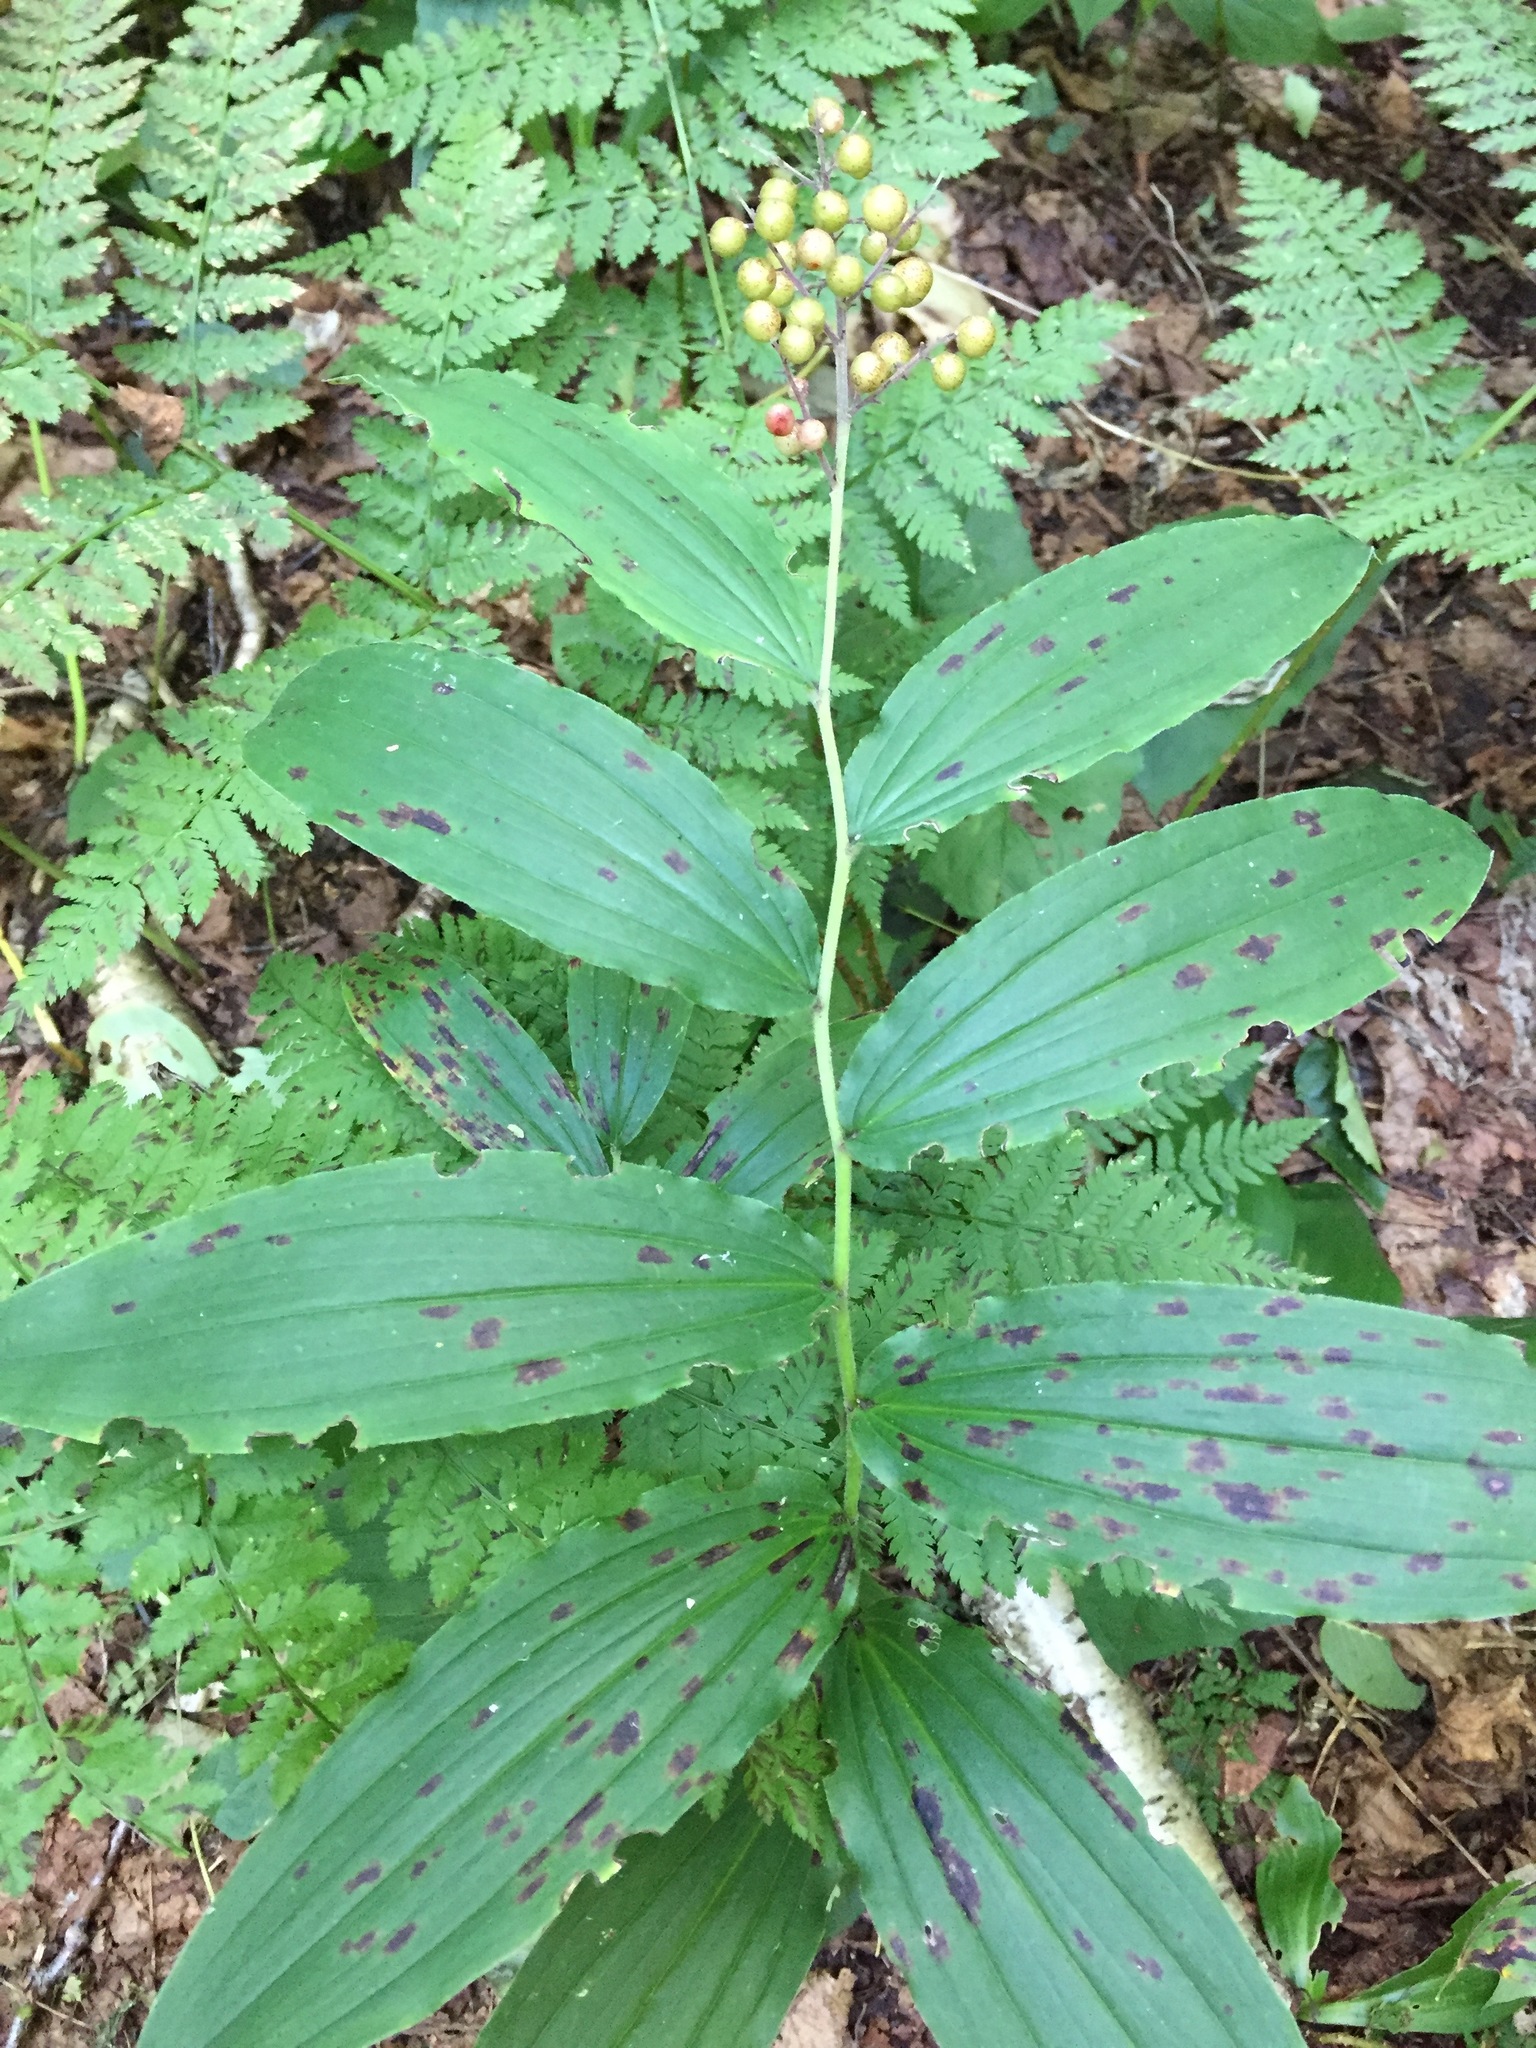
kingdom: Plantae
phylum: Tracheophyta
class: Liliopsida
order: Asparagales
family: Asparagaceae
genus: Maianthemum
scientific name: Maianthemum racemosum
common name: False spikenard
